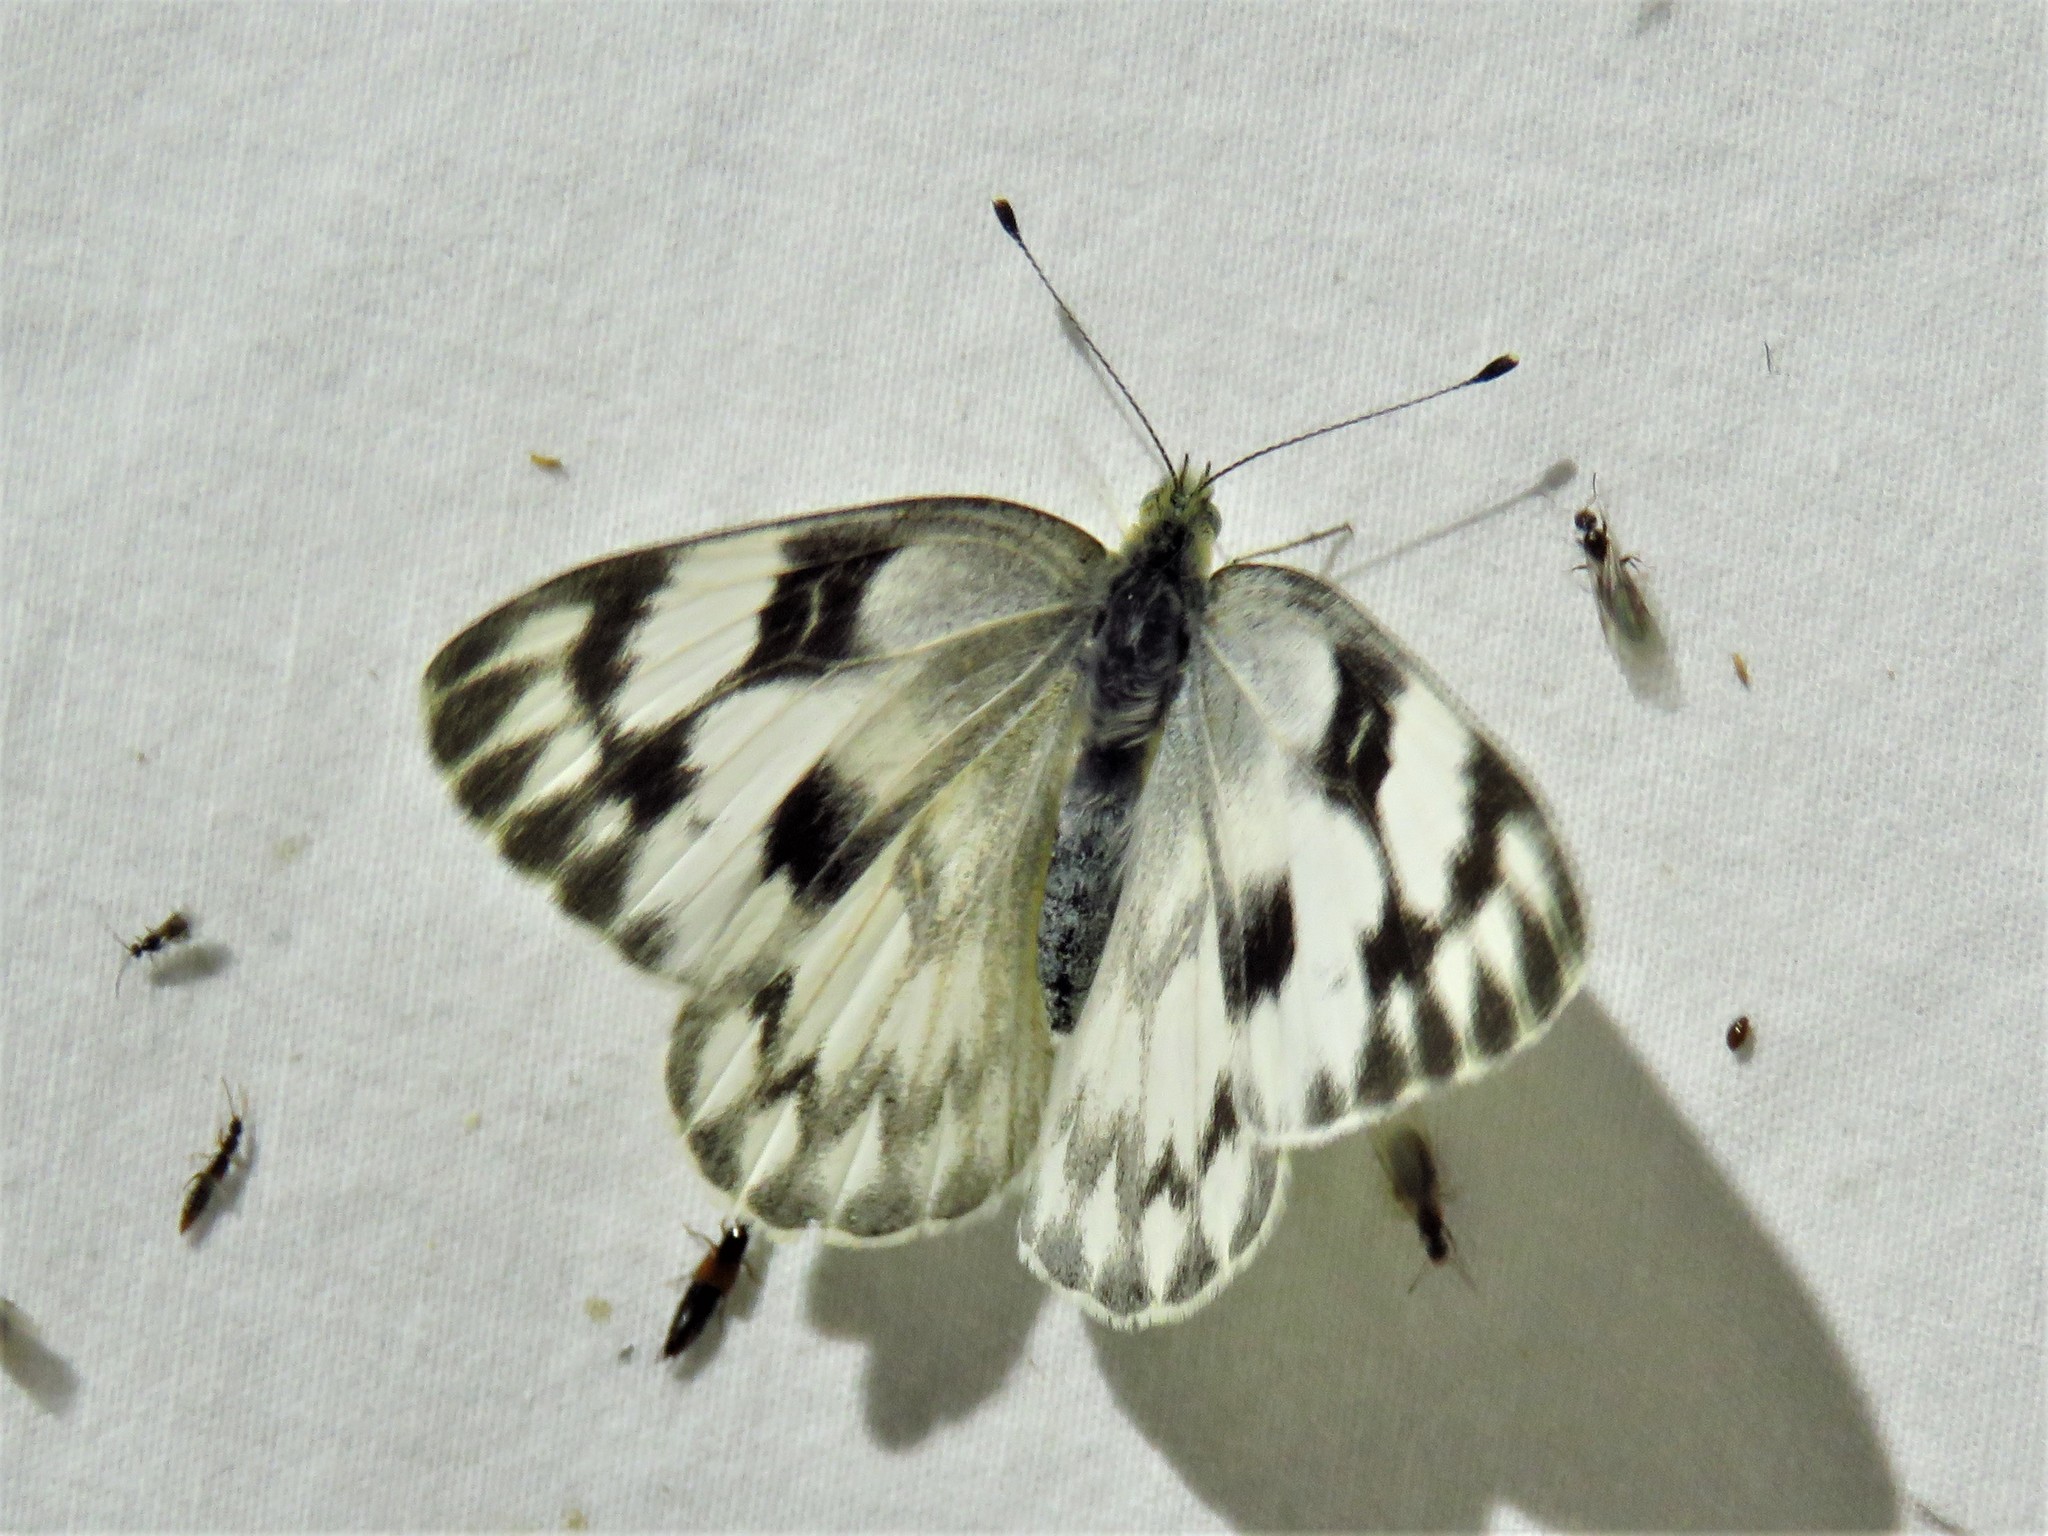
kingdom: Animalia
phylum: Arthropoda
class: Insecta
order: Lepidoptera
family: Pieridae
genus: Pontia
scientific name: Pontia protodice
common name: Checkered white
